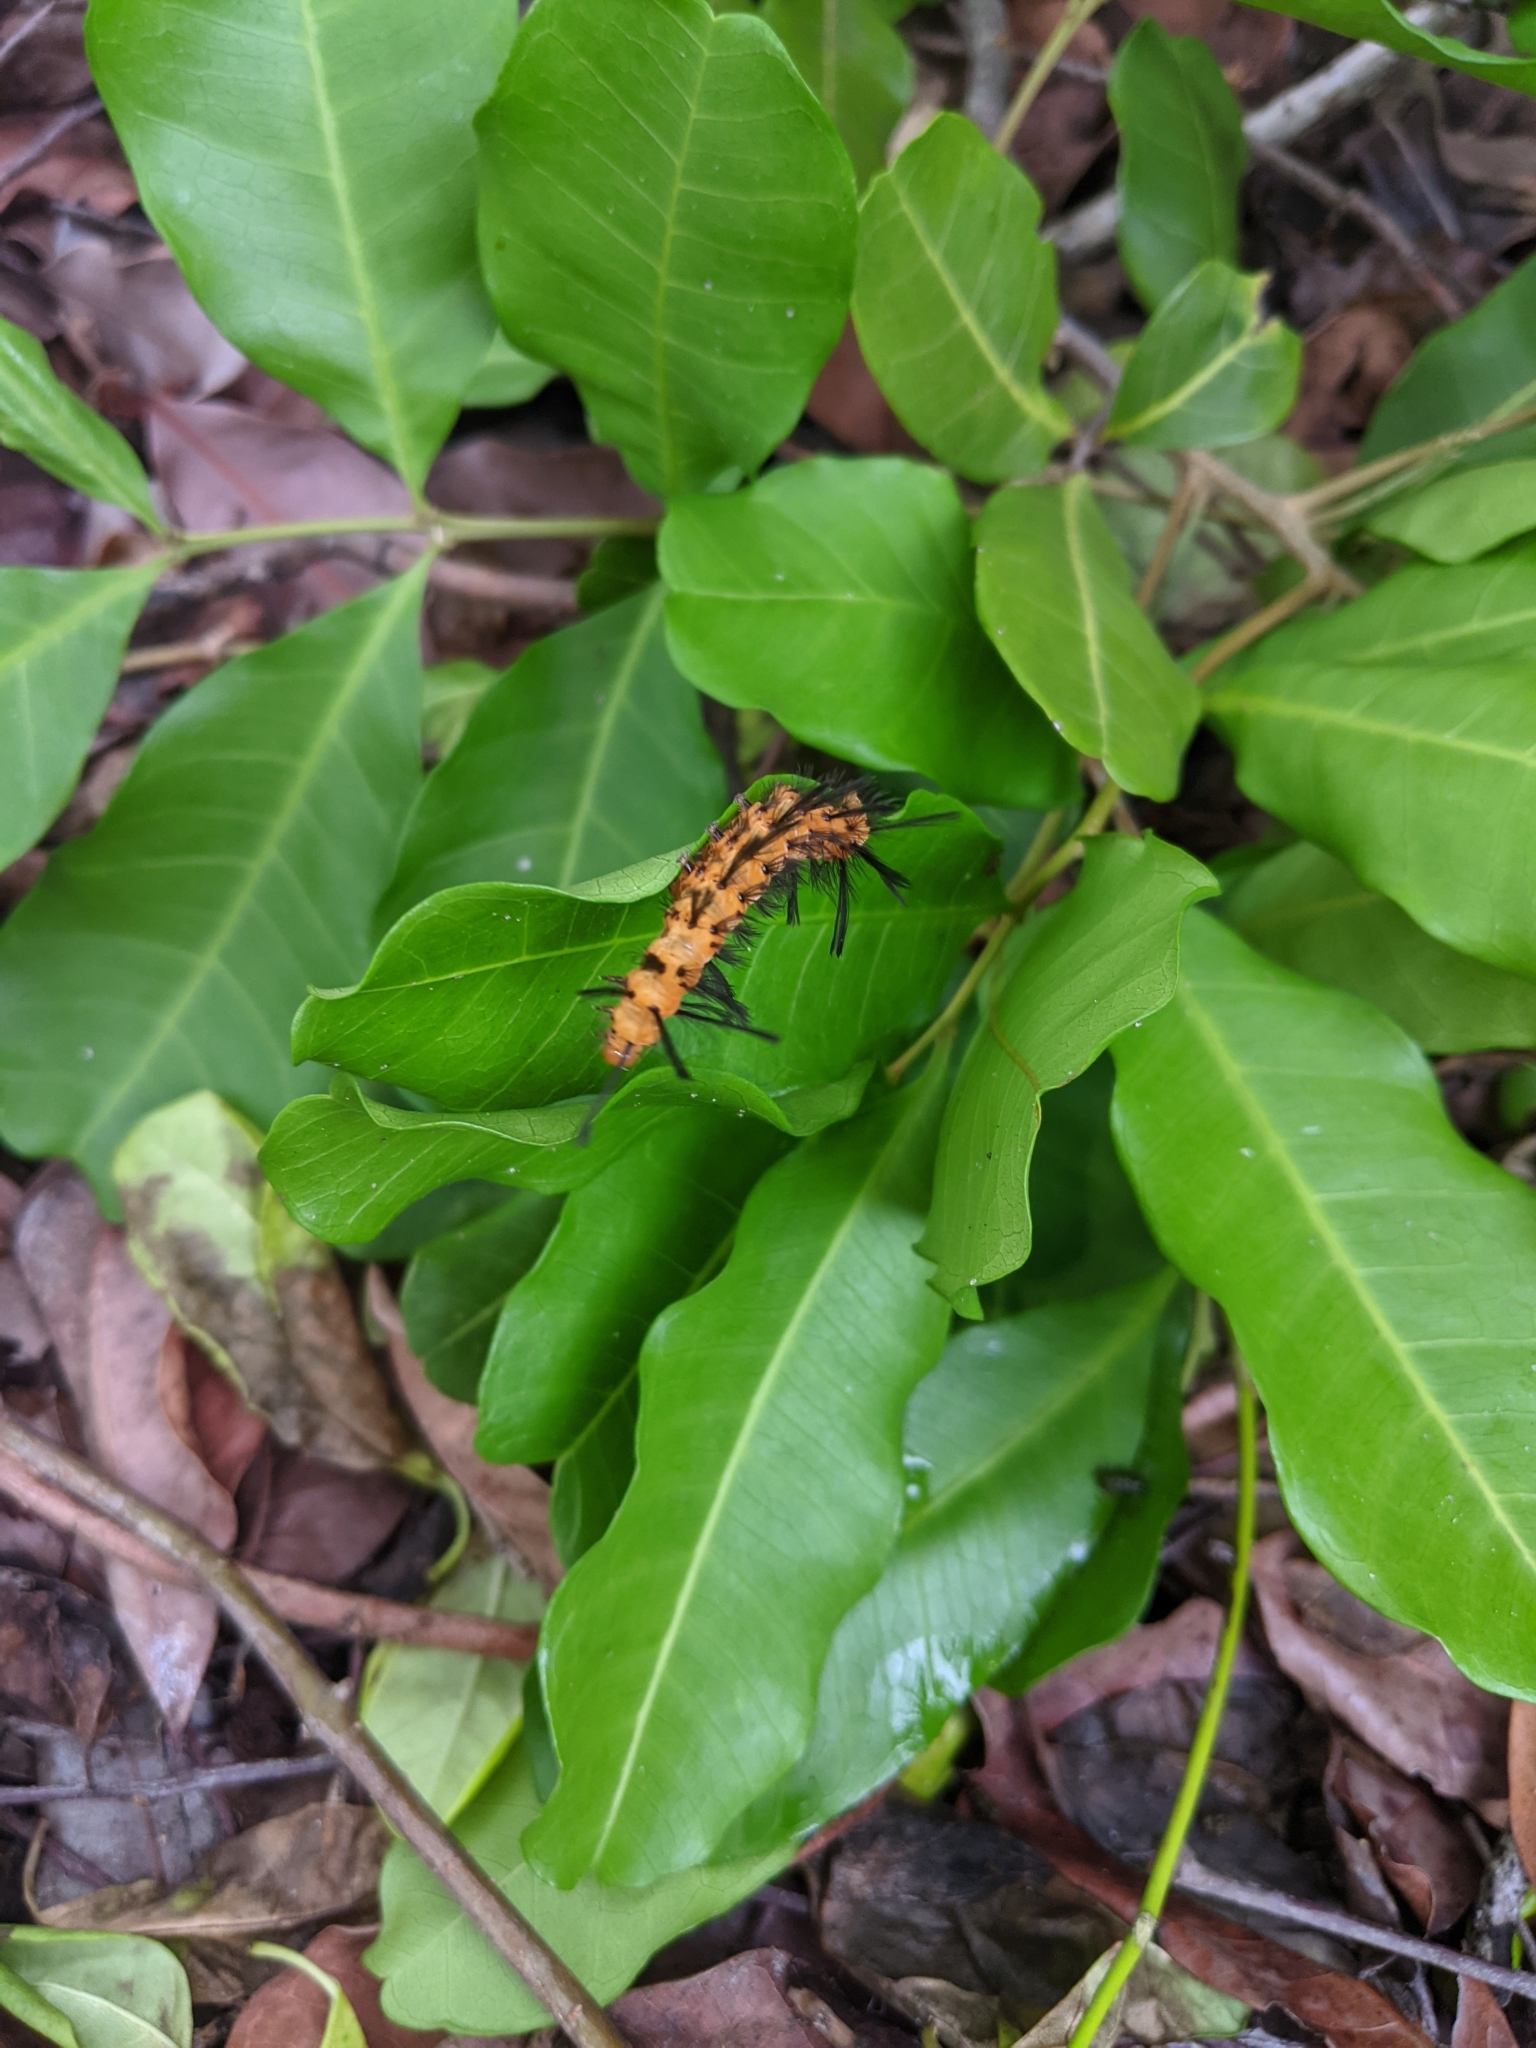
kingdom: Animalia
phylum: Arthropoda
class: Insecta
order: Lepidoptera
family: Erebidae
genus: Syntomeida
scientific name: Syntomeida epilais
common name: Polka-dot wasp moth
